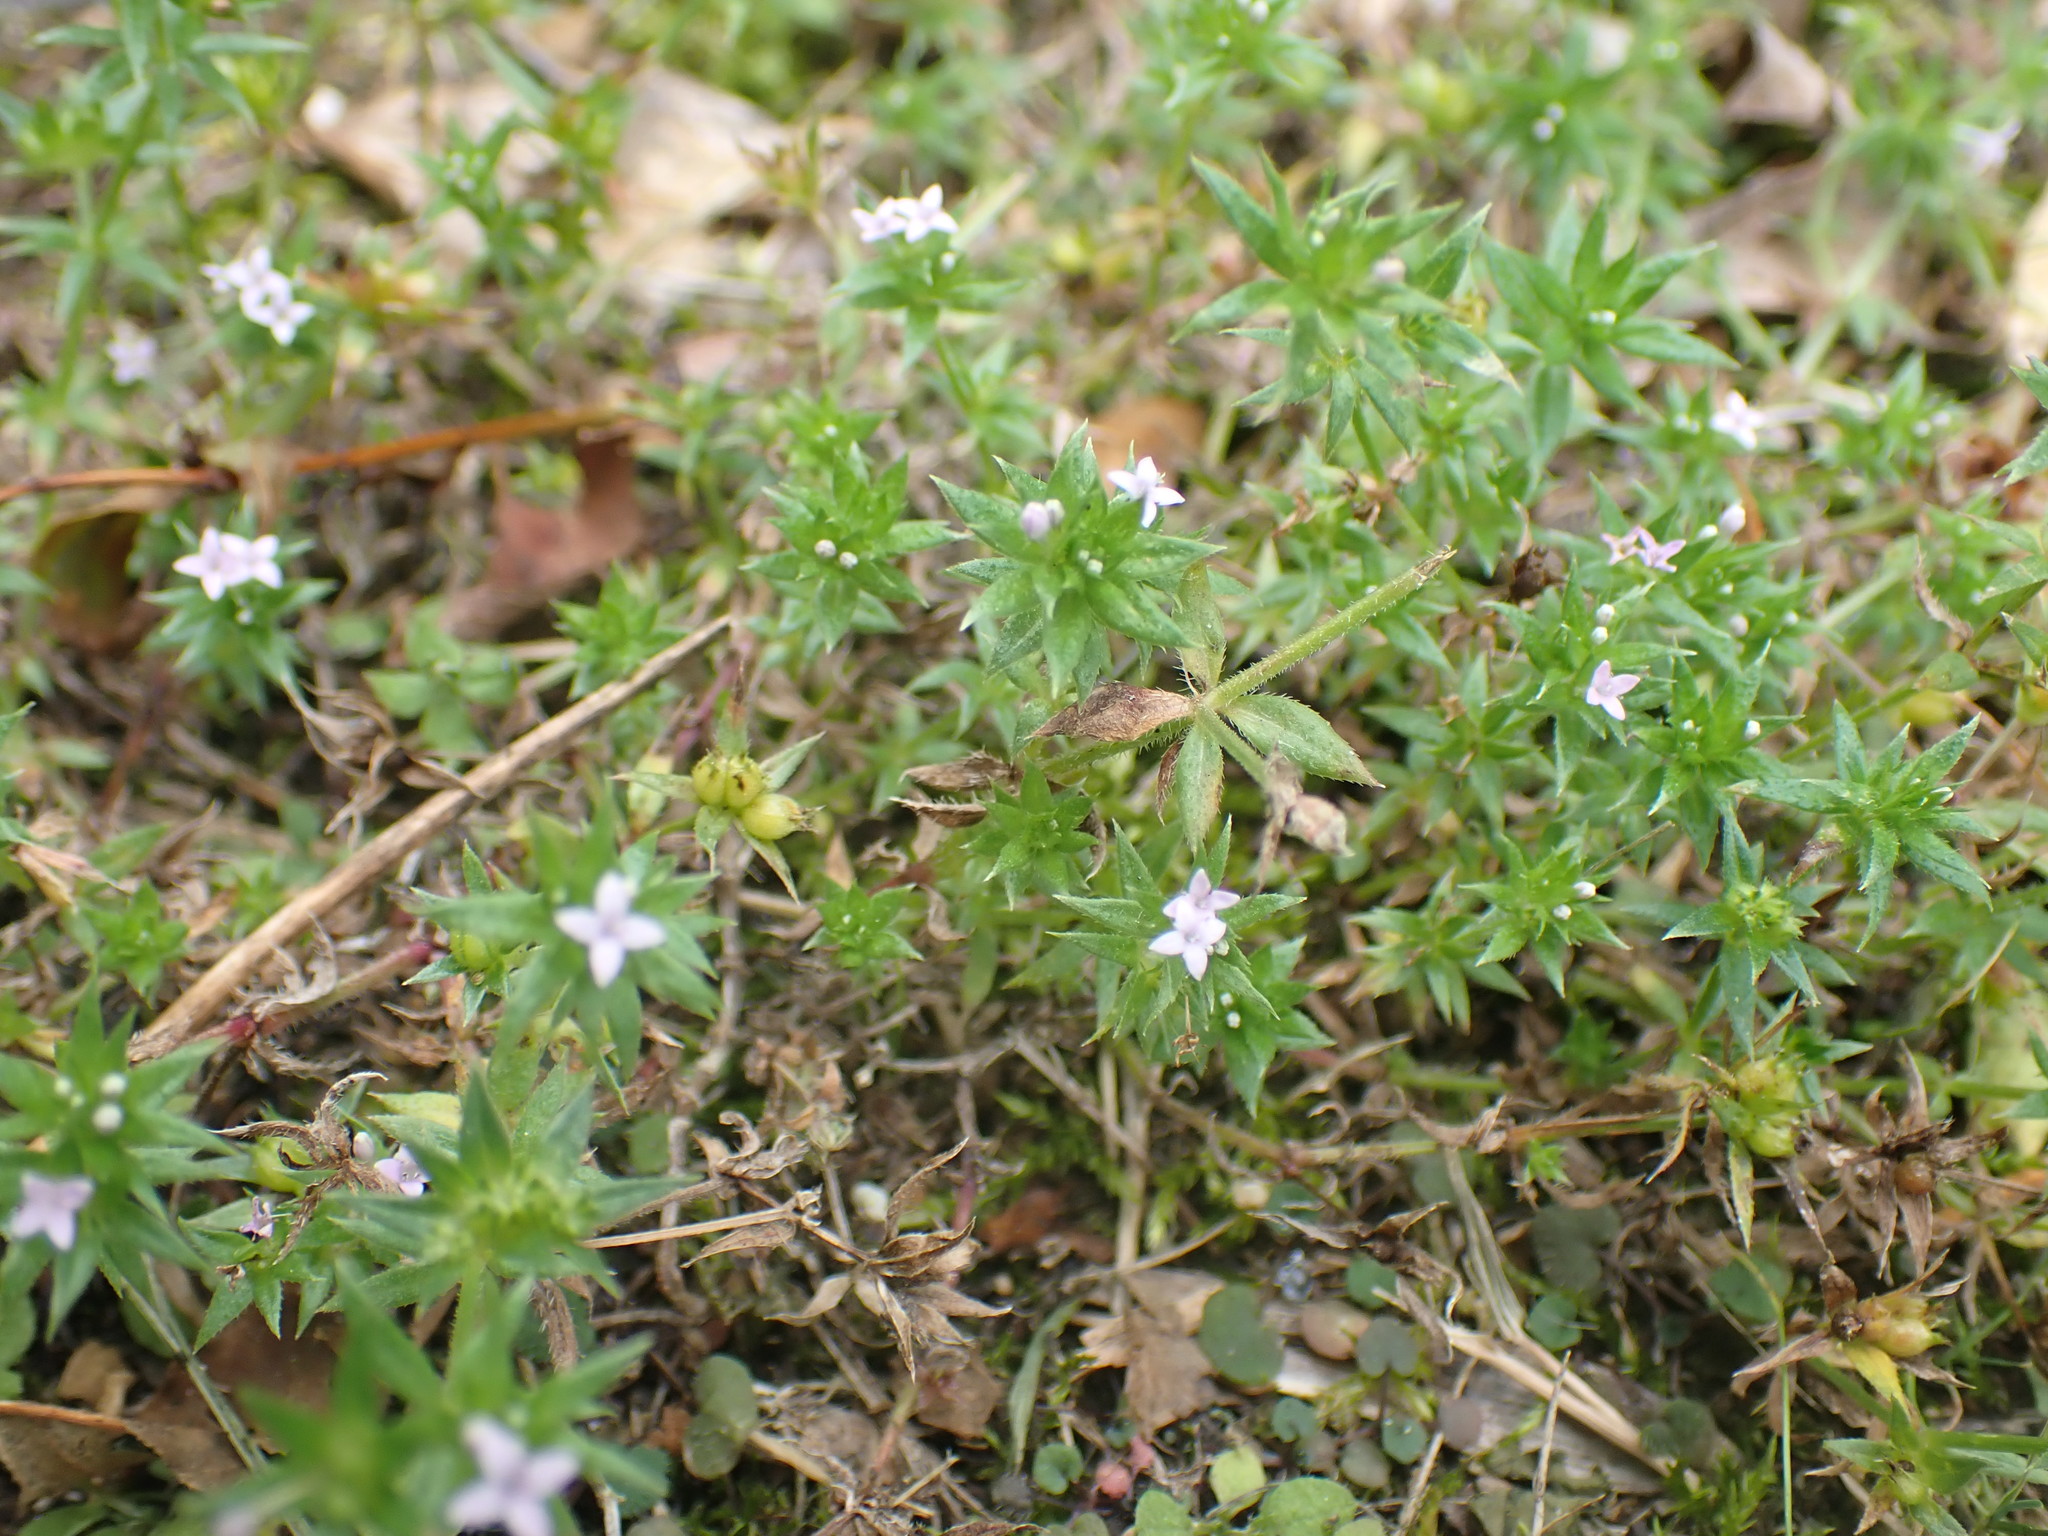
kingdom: Plantae
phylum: Tracheophyta
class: Magnoliopsida
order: Gentianales
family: Rubiaceae
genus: Sherardia
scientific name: Sherardia arvensis
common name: Field madder
